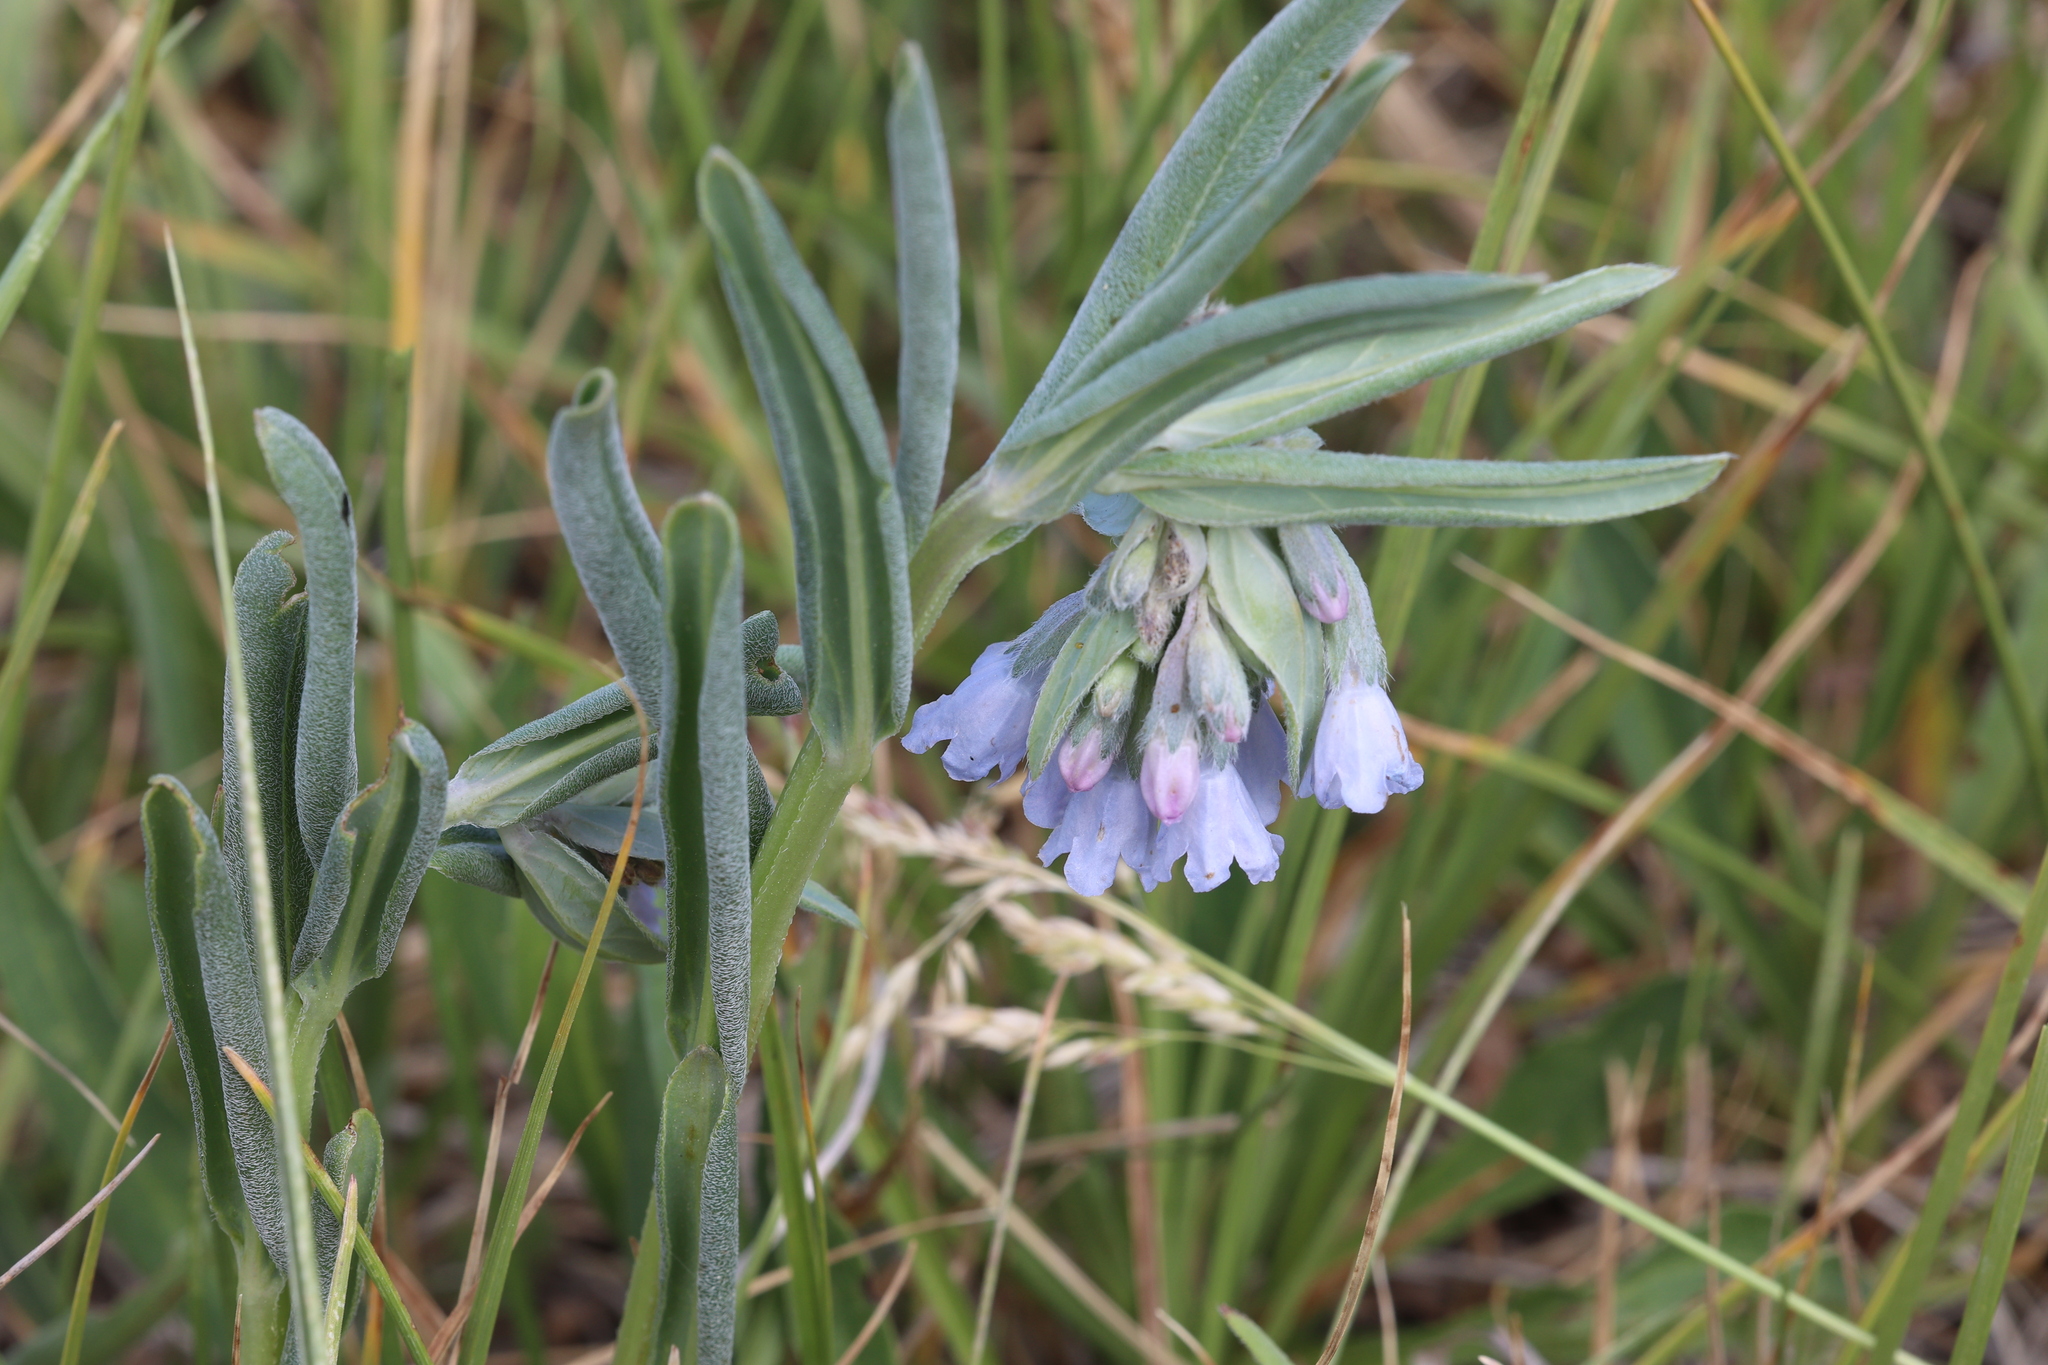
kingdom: Plantae
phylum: Tracheophyta
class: Magnoliopsida
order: Boraginales
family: Boraginaceae
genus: Mertensia
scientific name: Mertensia lanceolata
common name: Lance-leaved bluebells
